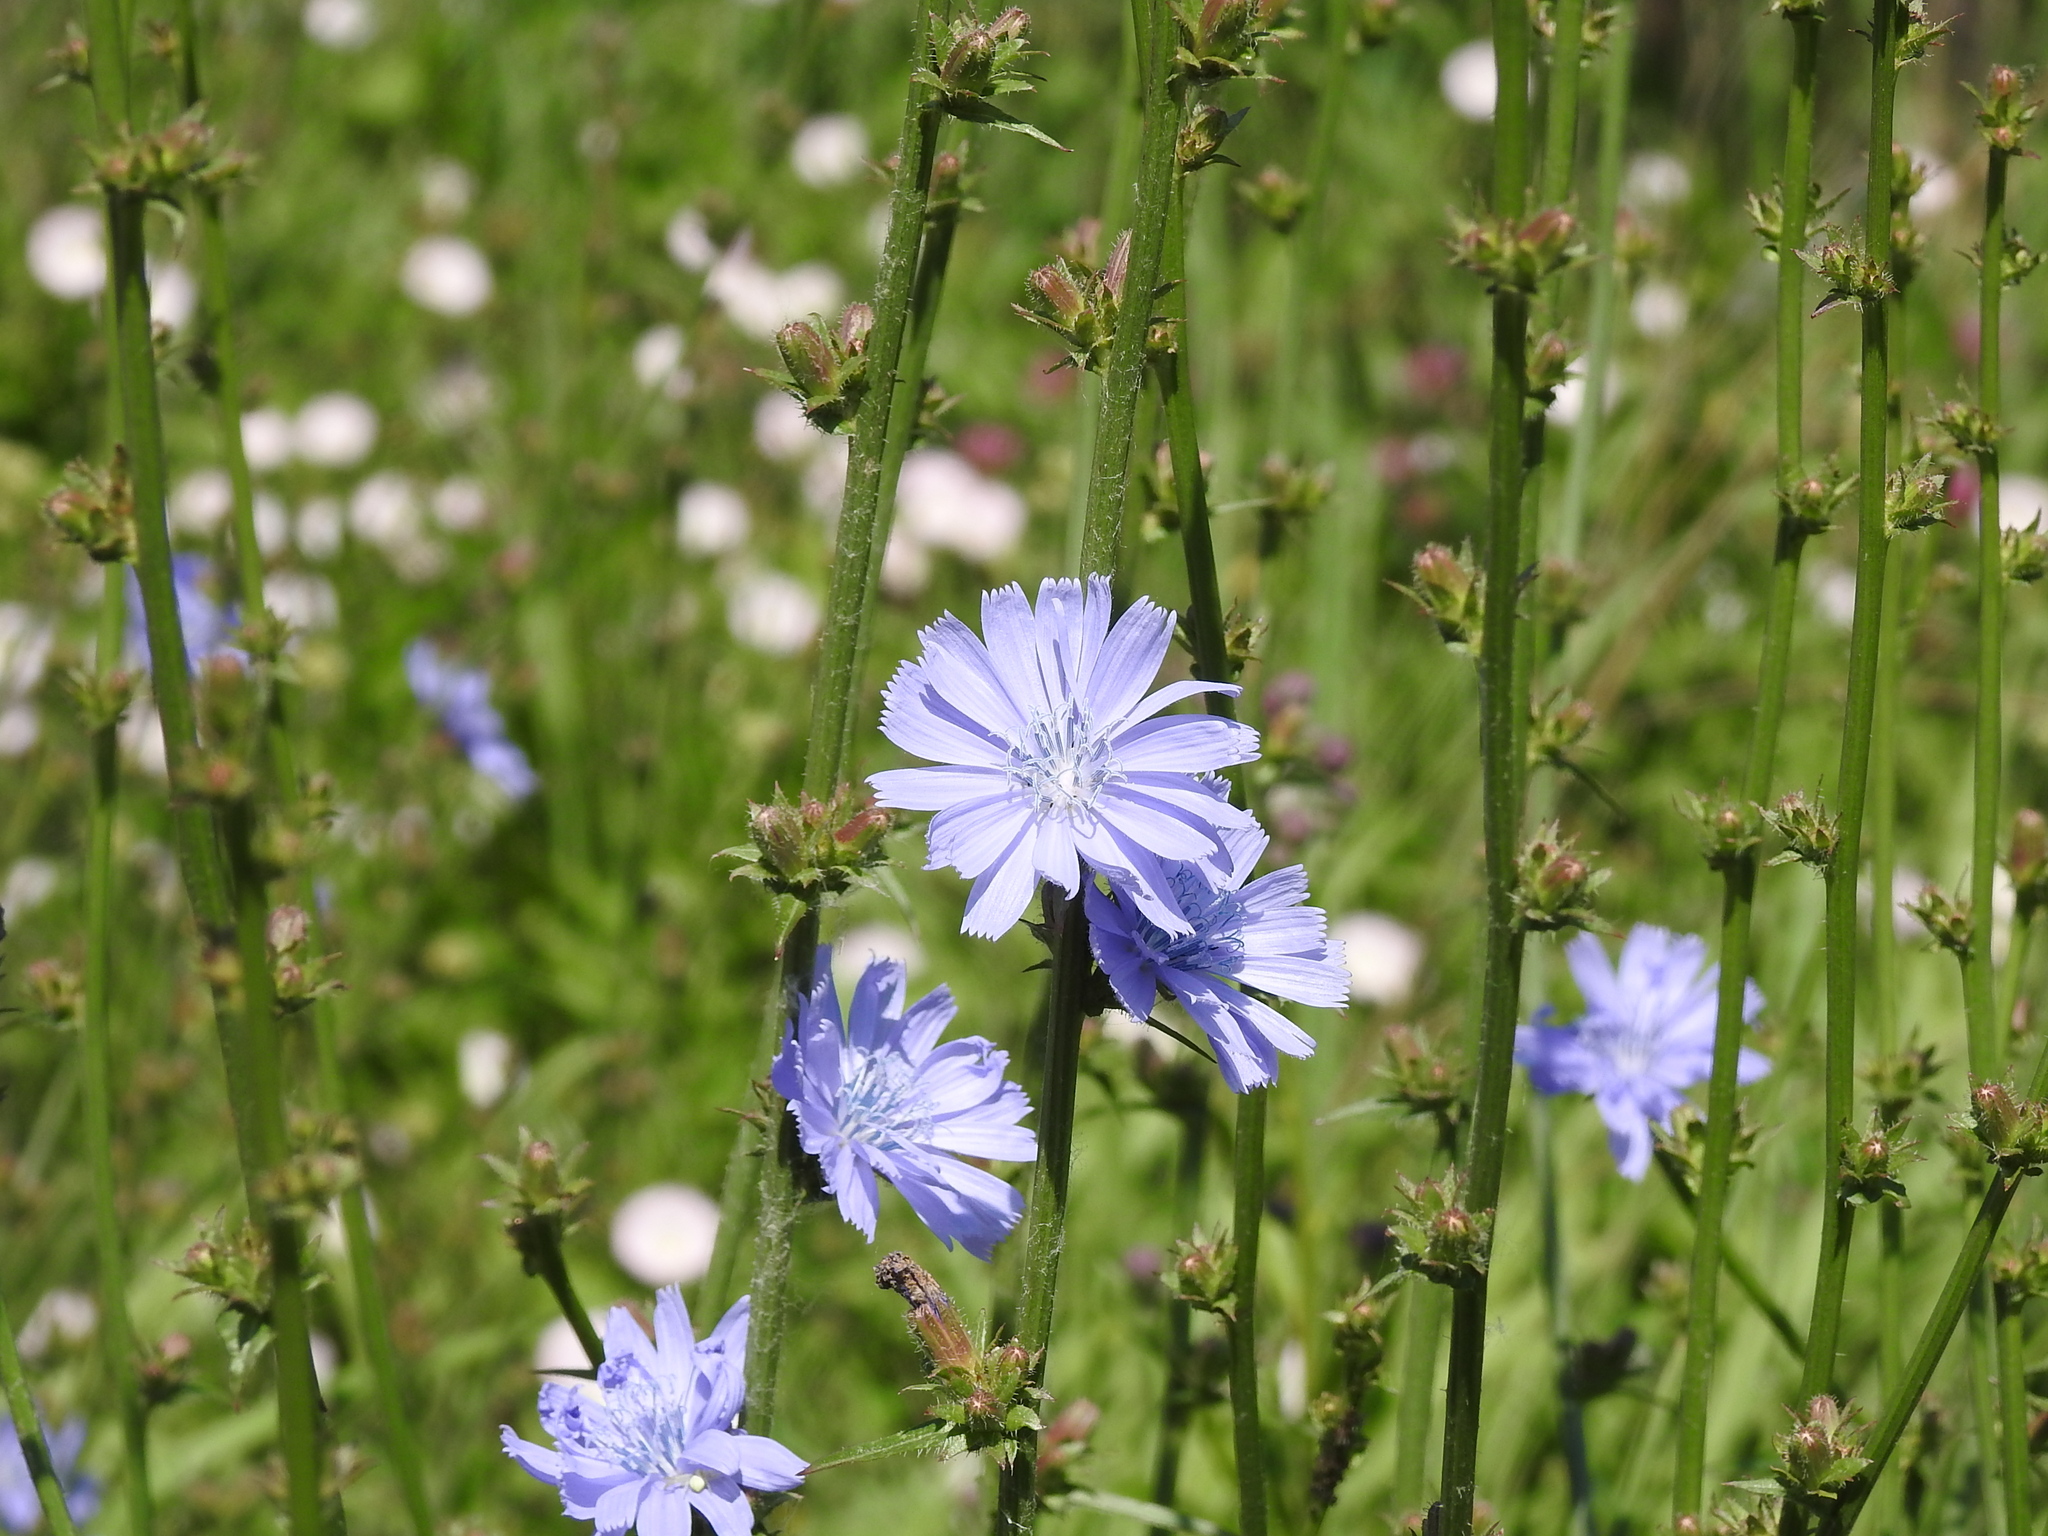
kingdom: Plantae
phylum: Tracheophyta
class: Magnoliopsida
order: Asterales
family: Asteraceae
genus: Cichorium
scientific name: Cichorium intybus
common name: Chicory
